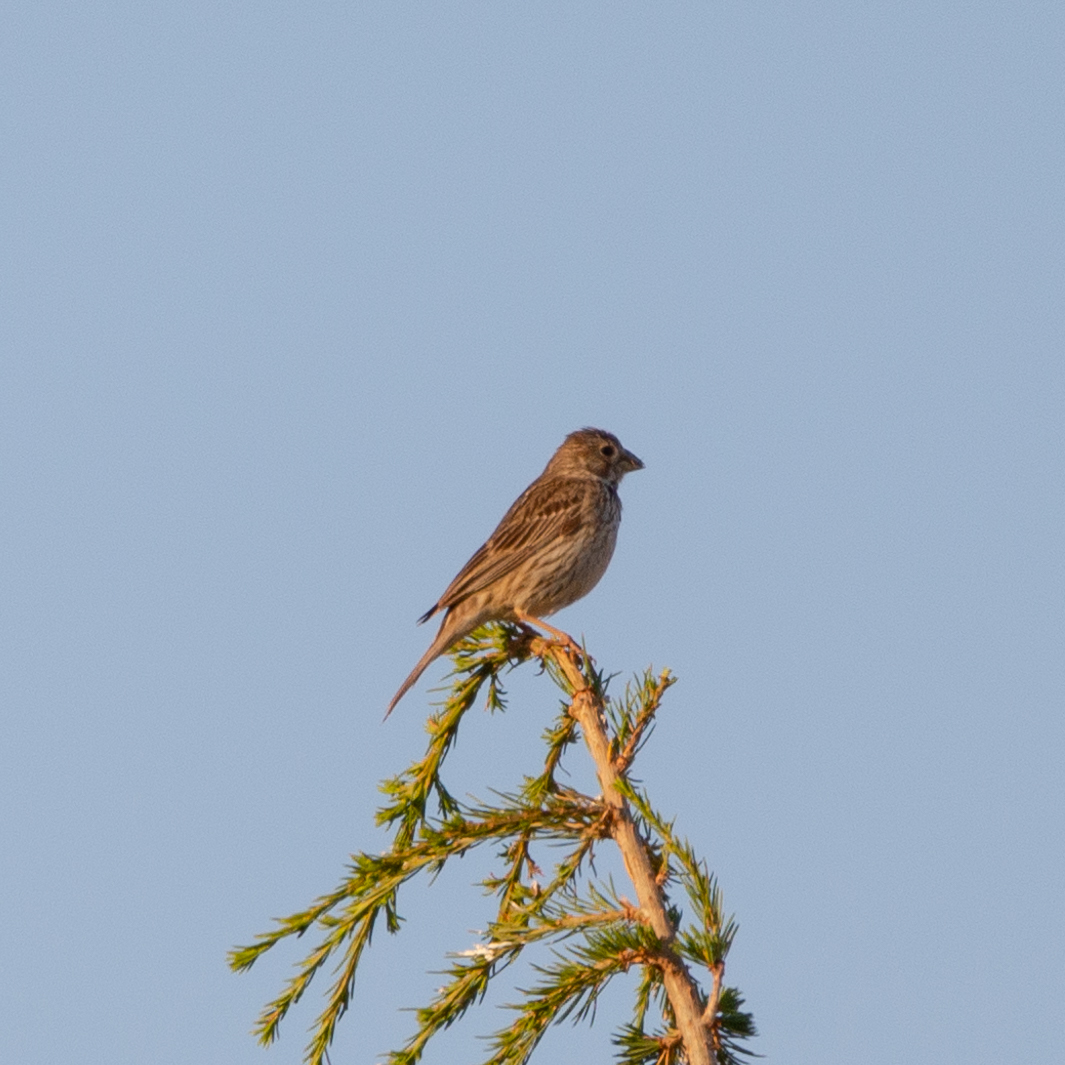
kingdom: Animalia
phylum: Chordata
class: Aves
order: Passeriformes
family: Emberizidae
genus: Emberiza
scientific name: Emberiza calandra
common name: Corn bunting
